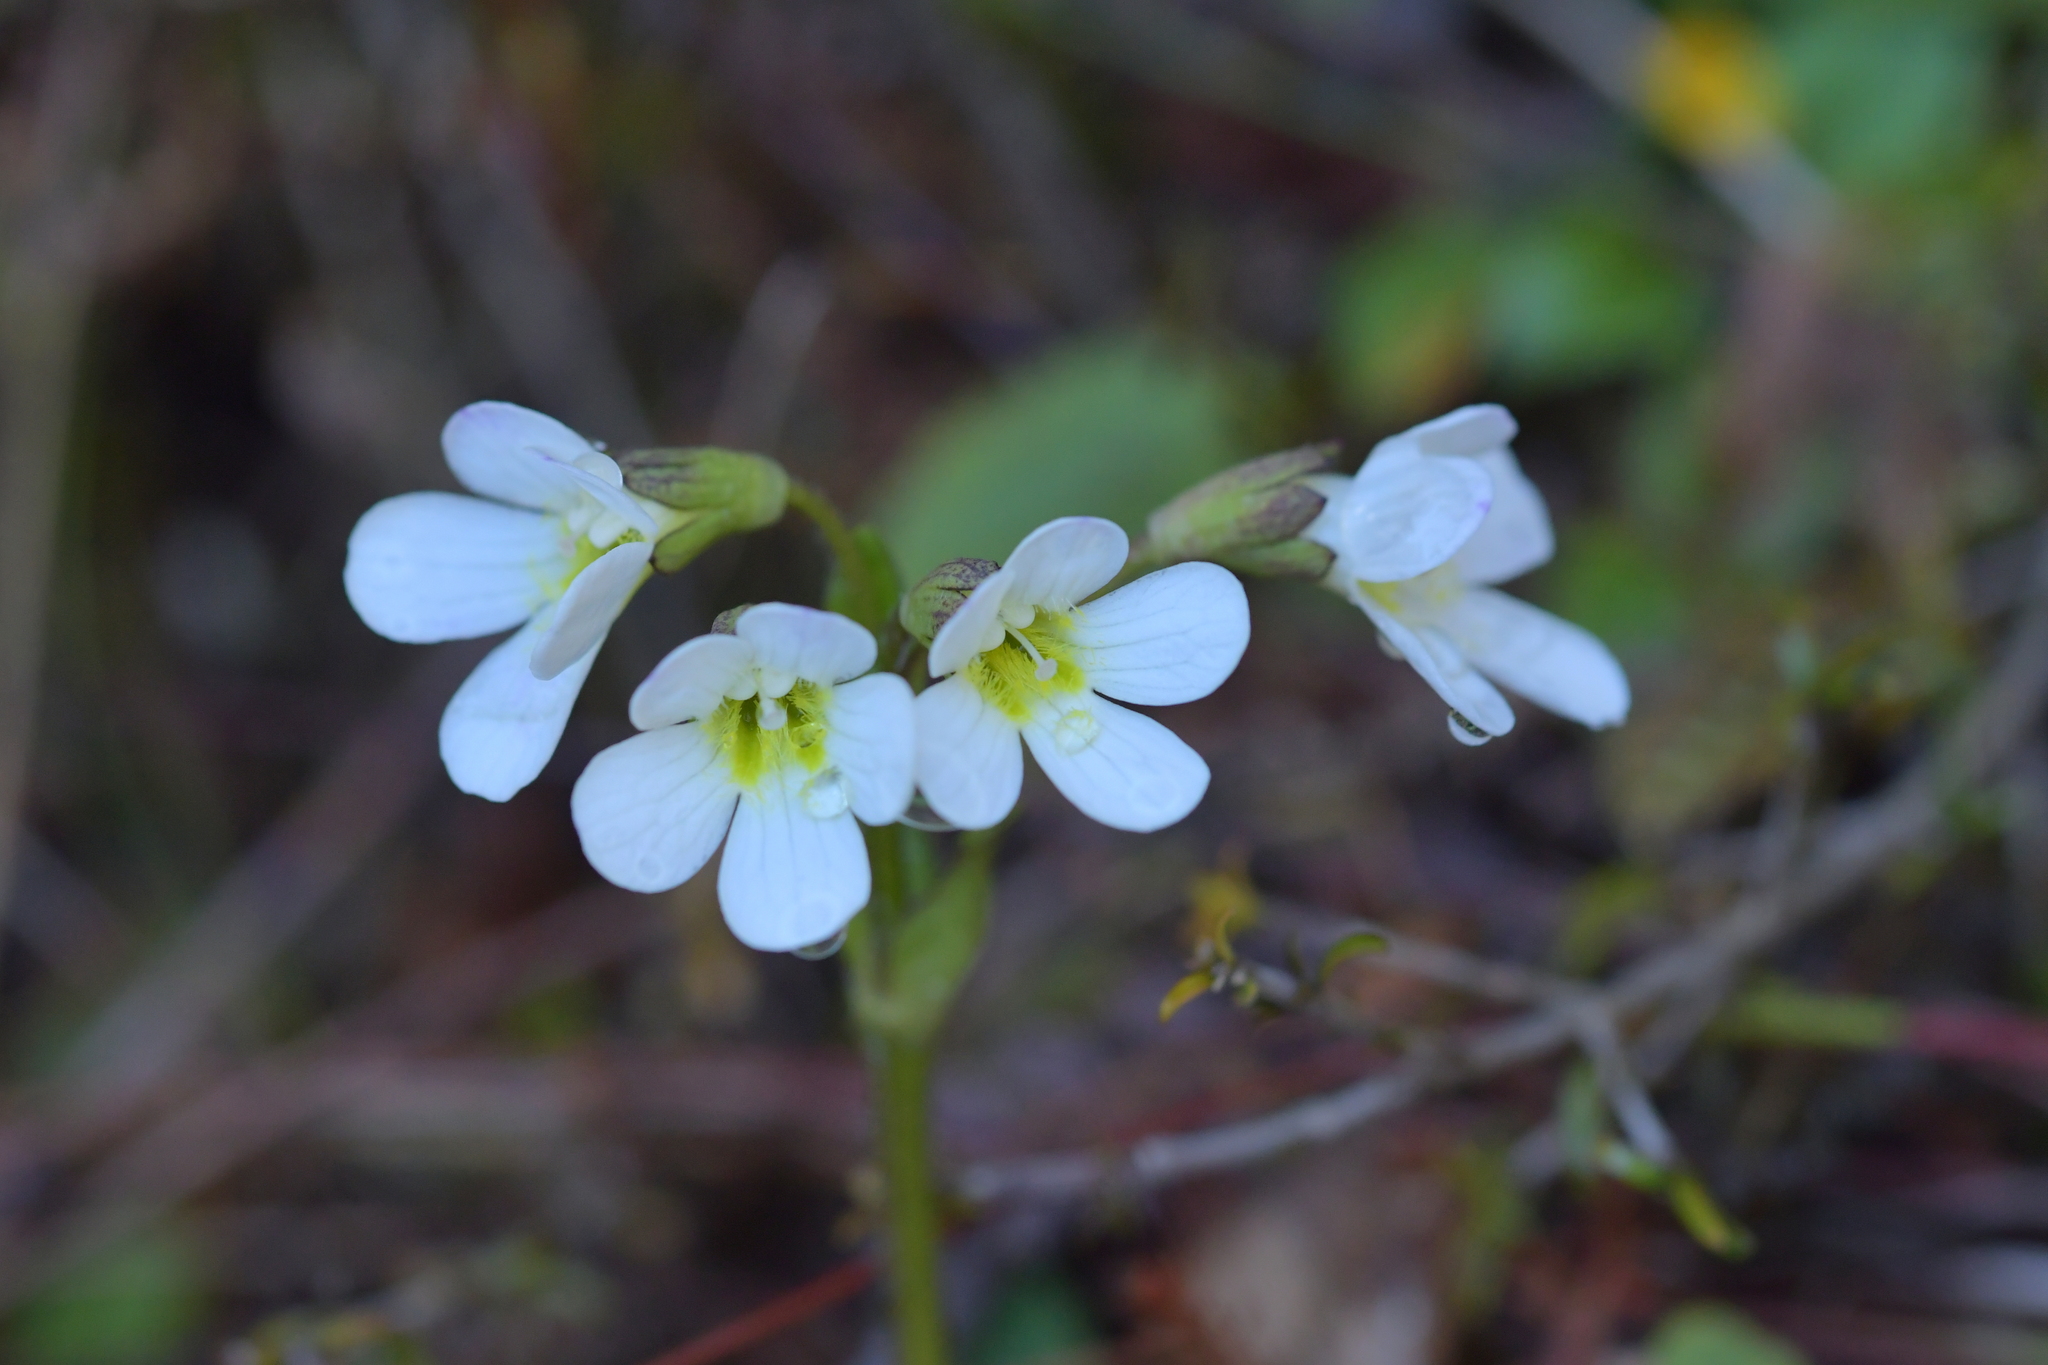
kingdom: Plantae
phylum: Tracheophyta
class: Magnoliopsida
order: Lamiales
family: Plantaginaceae
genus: Ourisia
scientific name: Ourisia vulcanica
